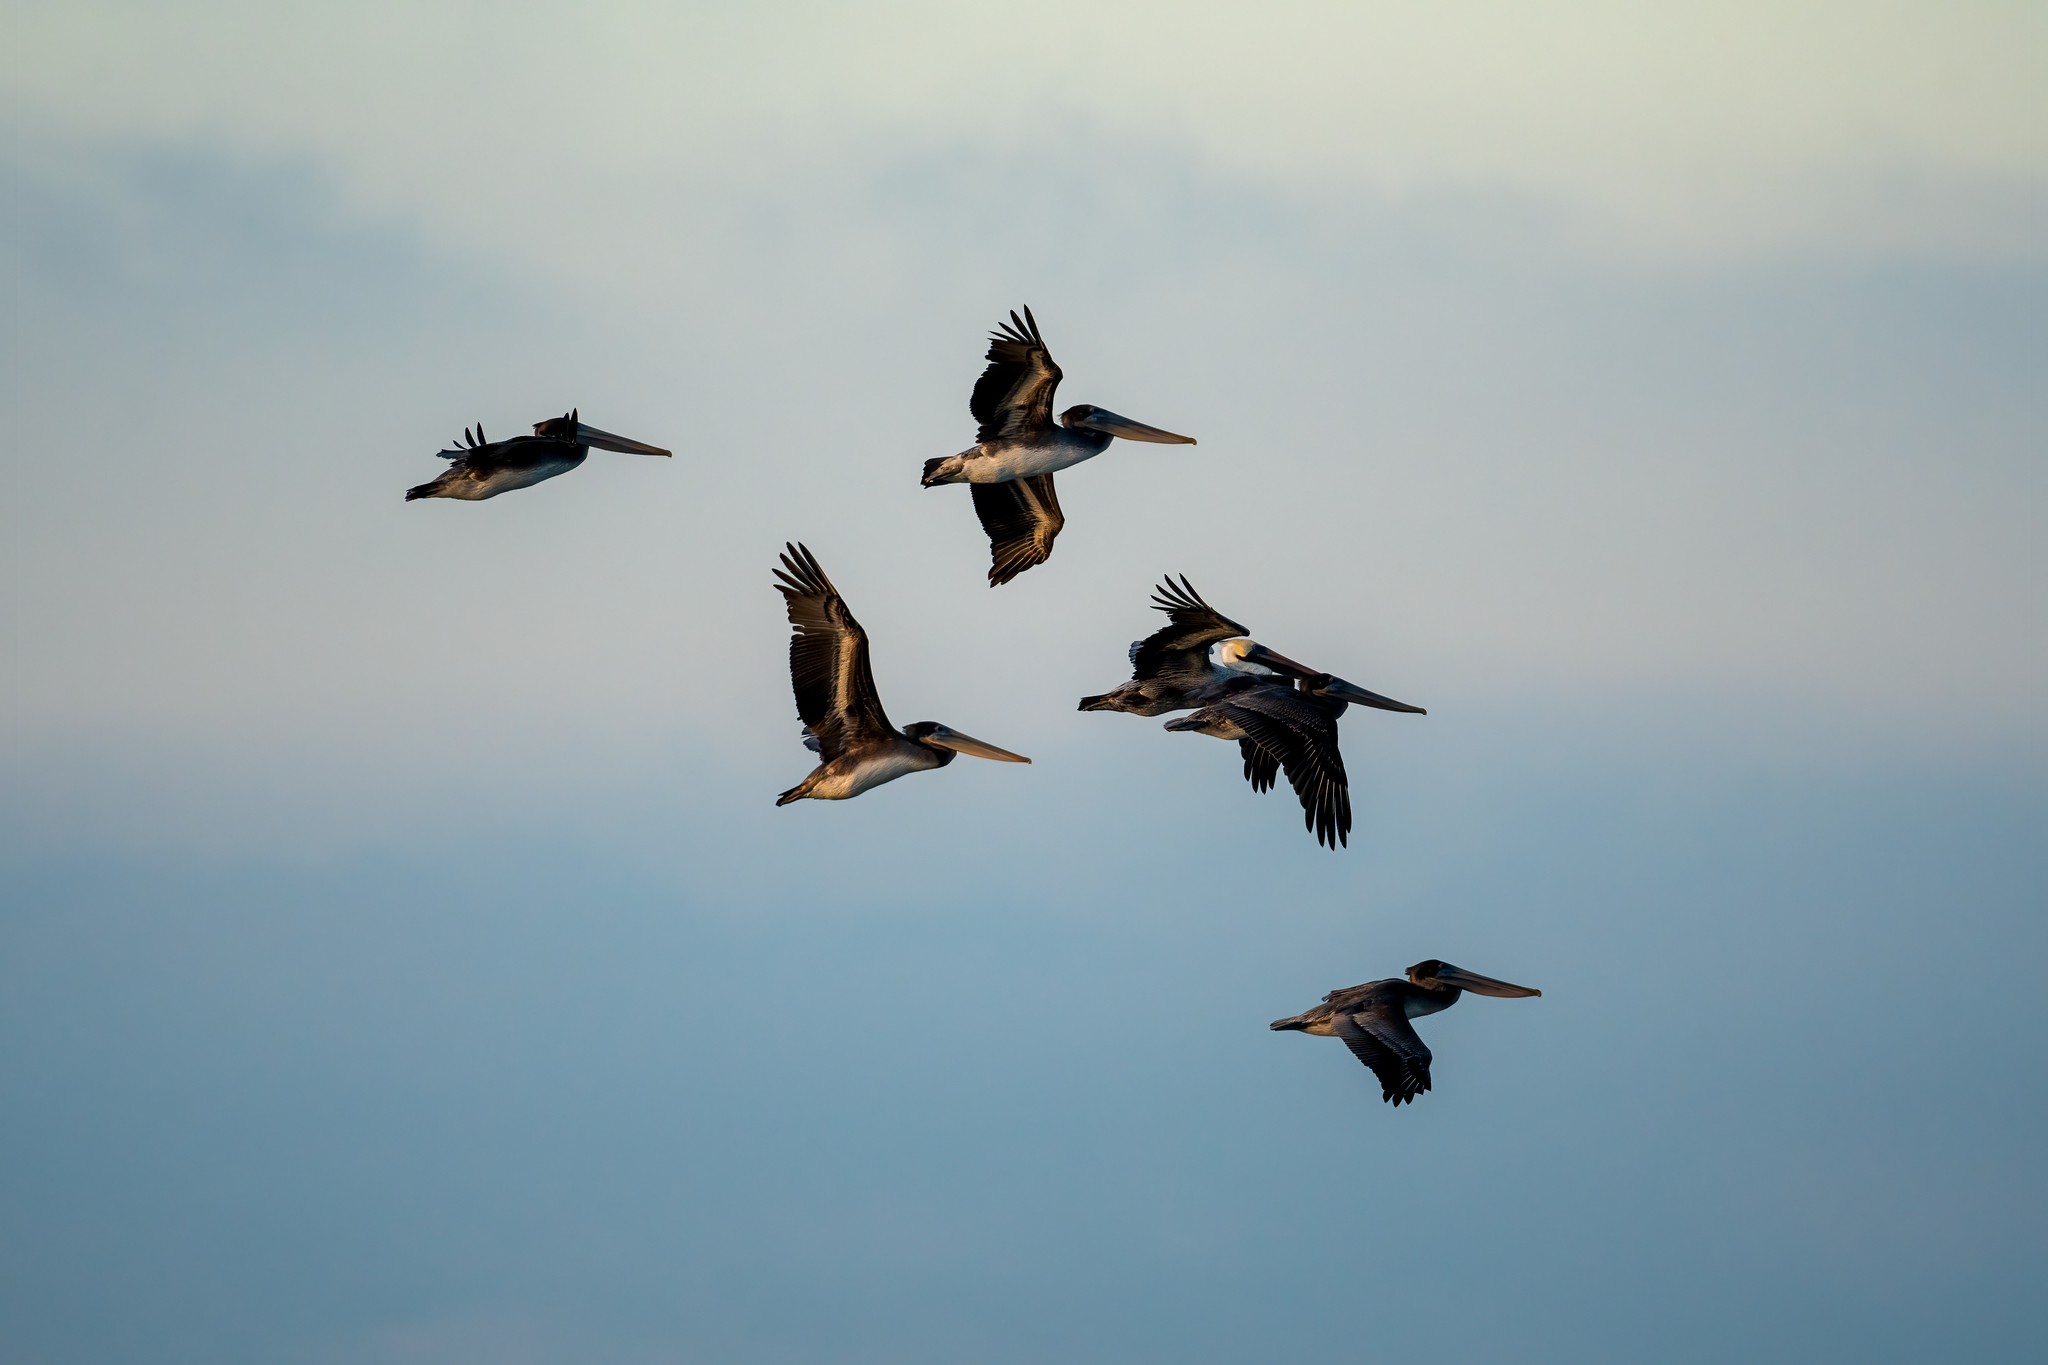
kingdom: Animalia
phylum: Chordata
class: Aves
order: Pelecaniformes
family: Pelecanidae
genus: Pelecanus
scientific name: Pelecanus occidentalis
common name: Brown pelican
